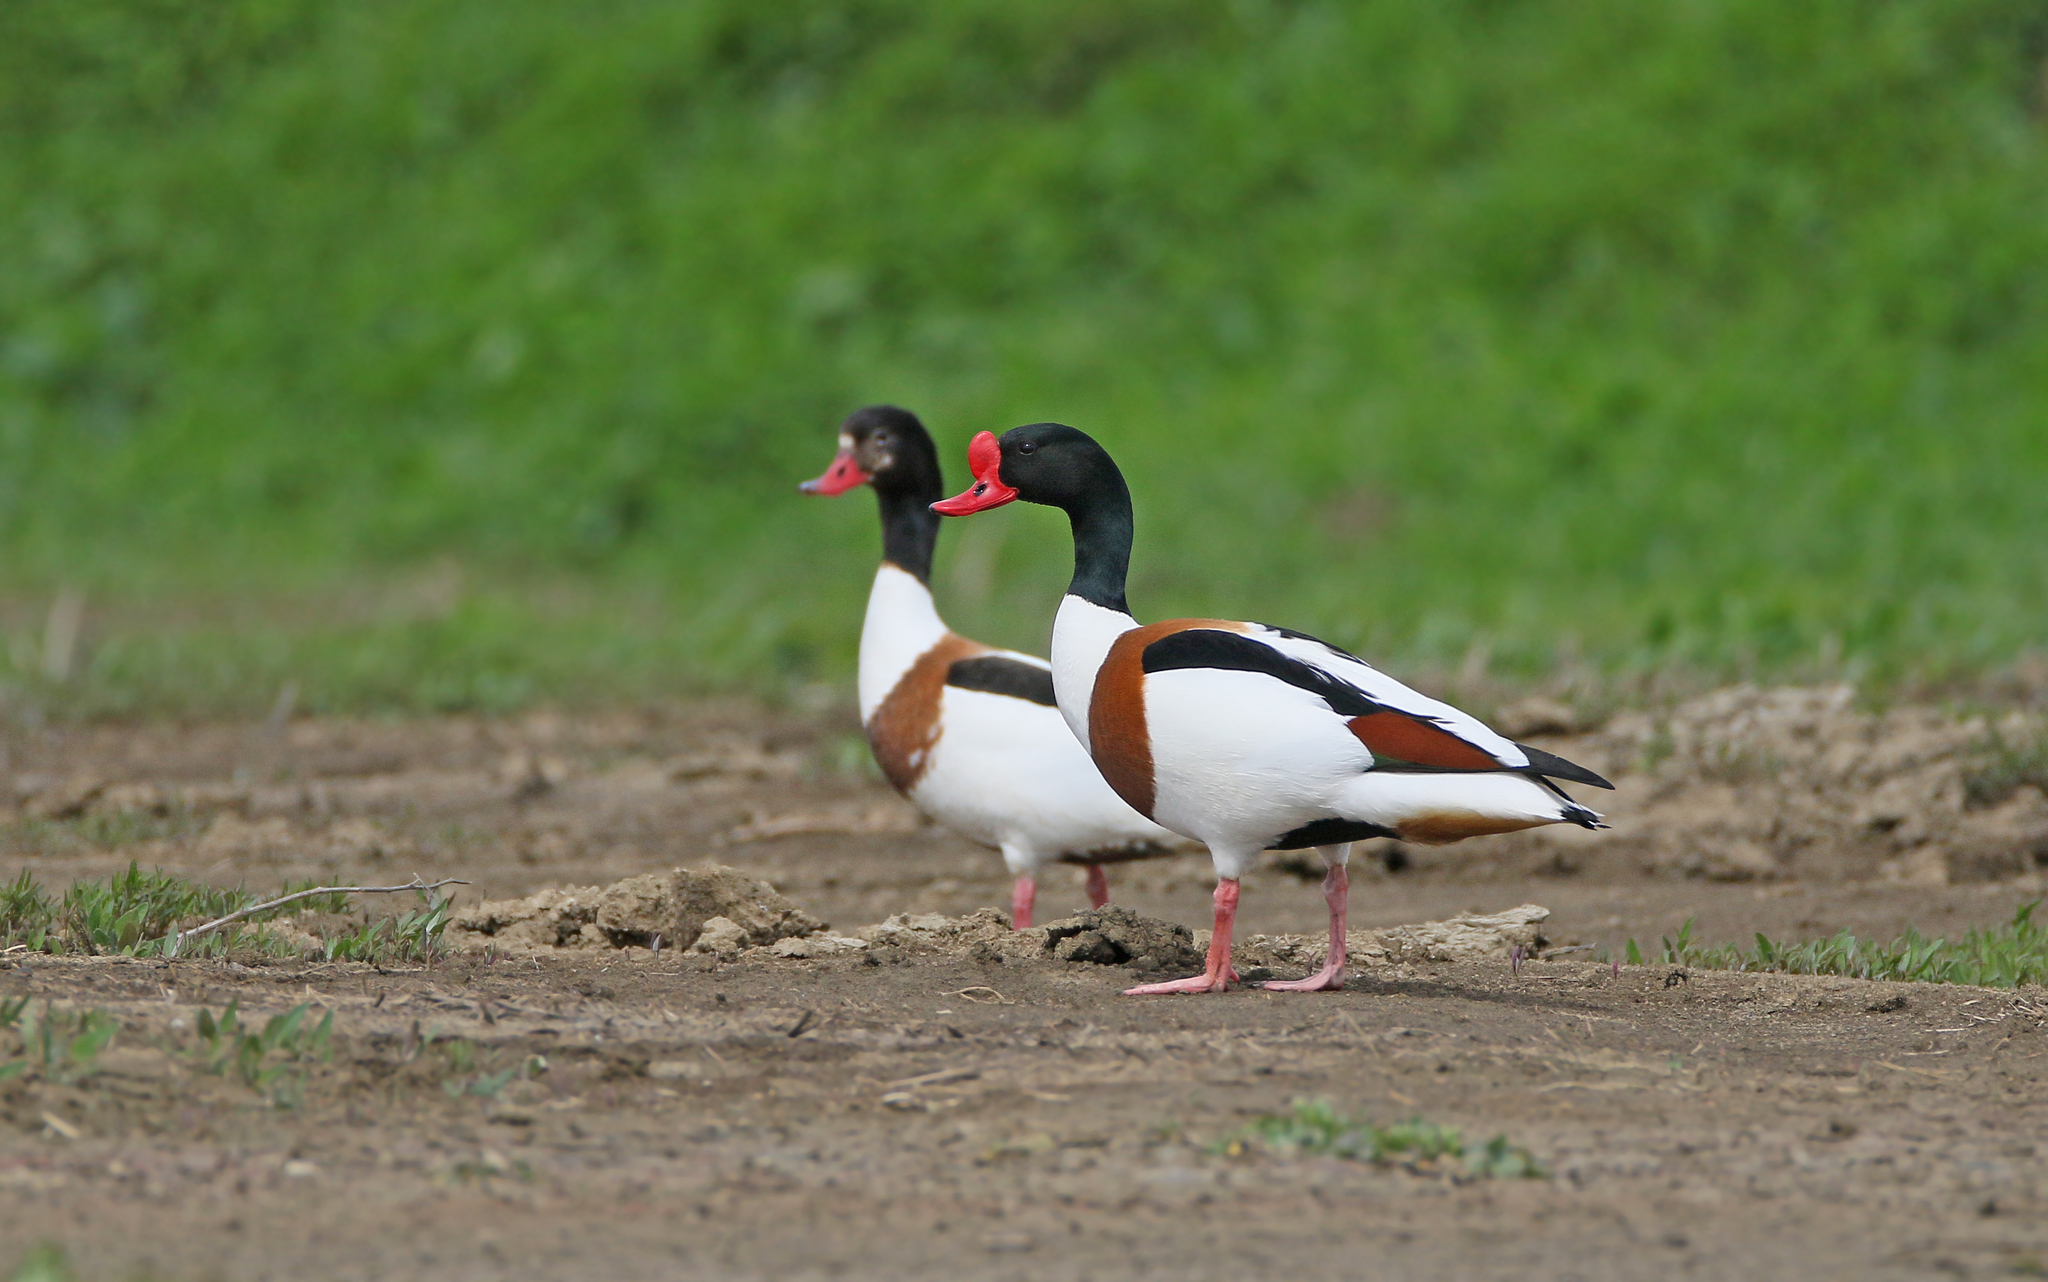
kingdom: Animalia
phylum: Chordata
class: Aves
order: Anseriformes
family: Anatidae
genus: Tadorna
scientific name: Tadorna tadorna
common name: Common shelduck
